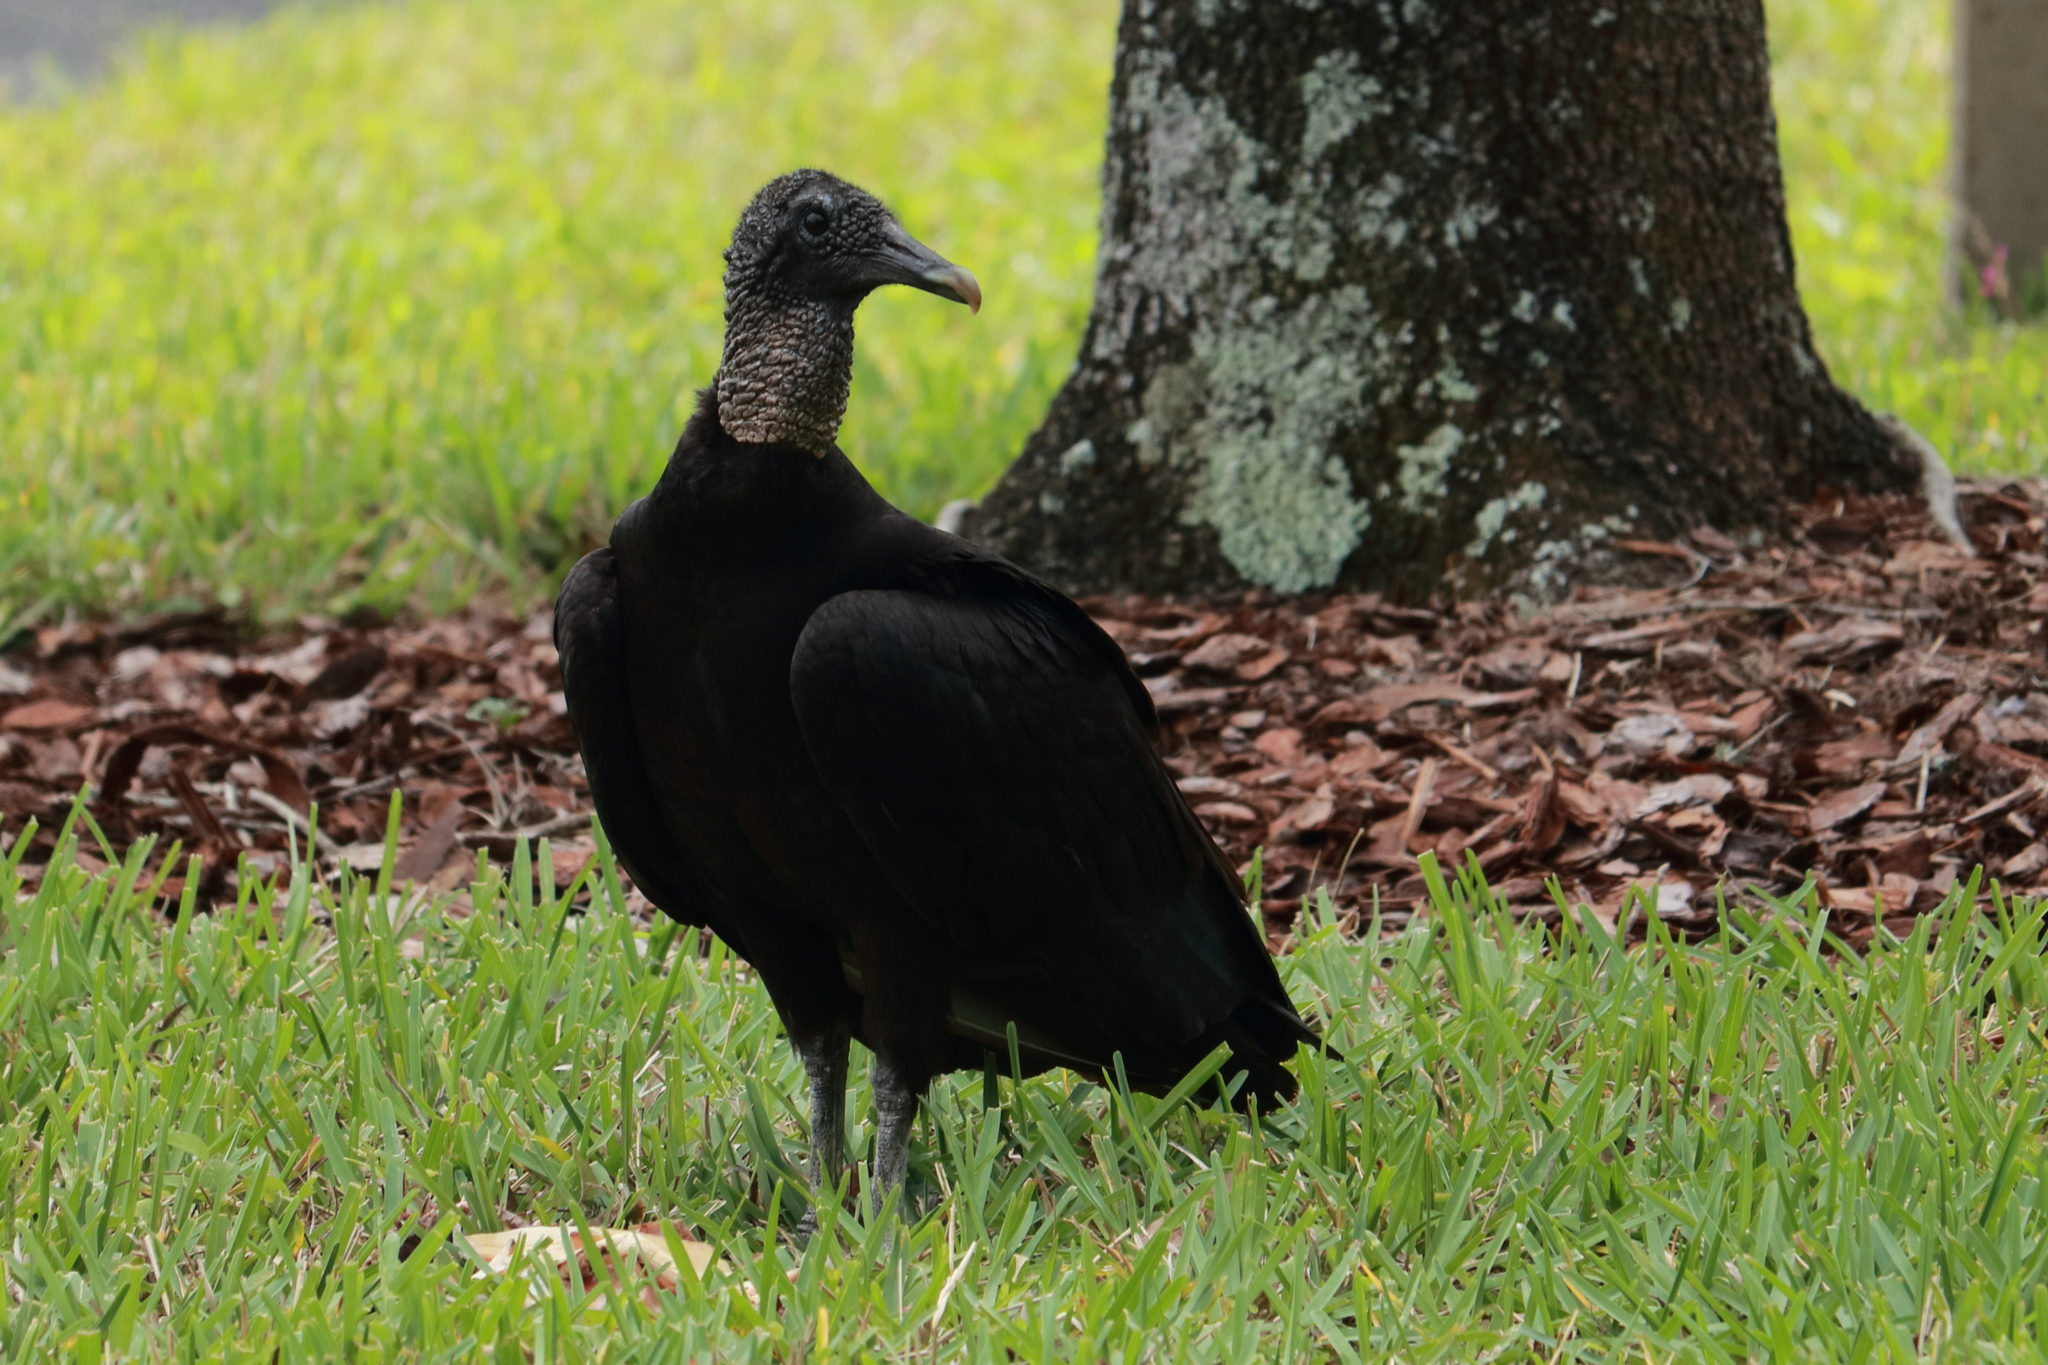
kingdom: Animalia
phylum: Chordata
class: Aves
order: Accipitriformes
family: Cathartidae
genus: Coragyps
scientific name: Coragyps atratus
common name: Black vulture
